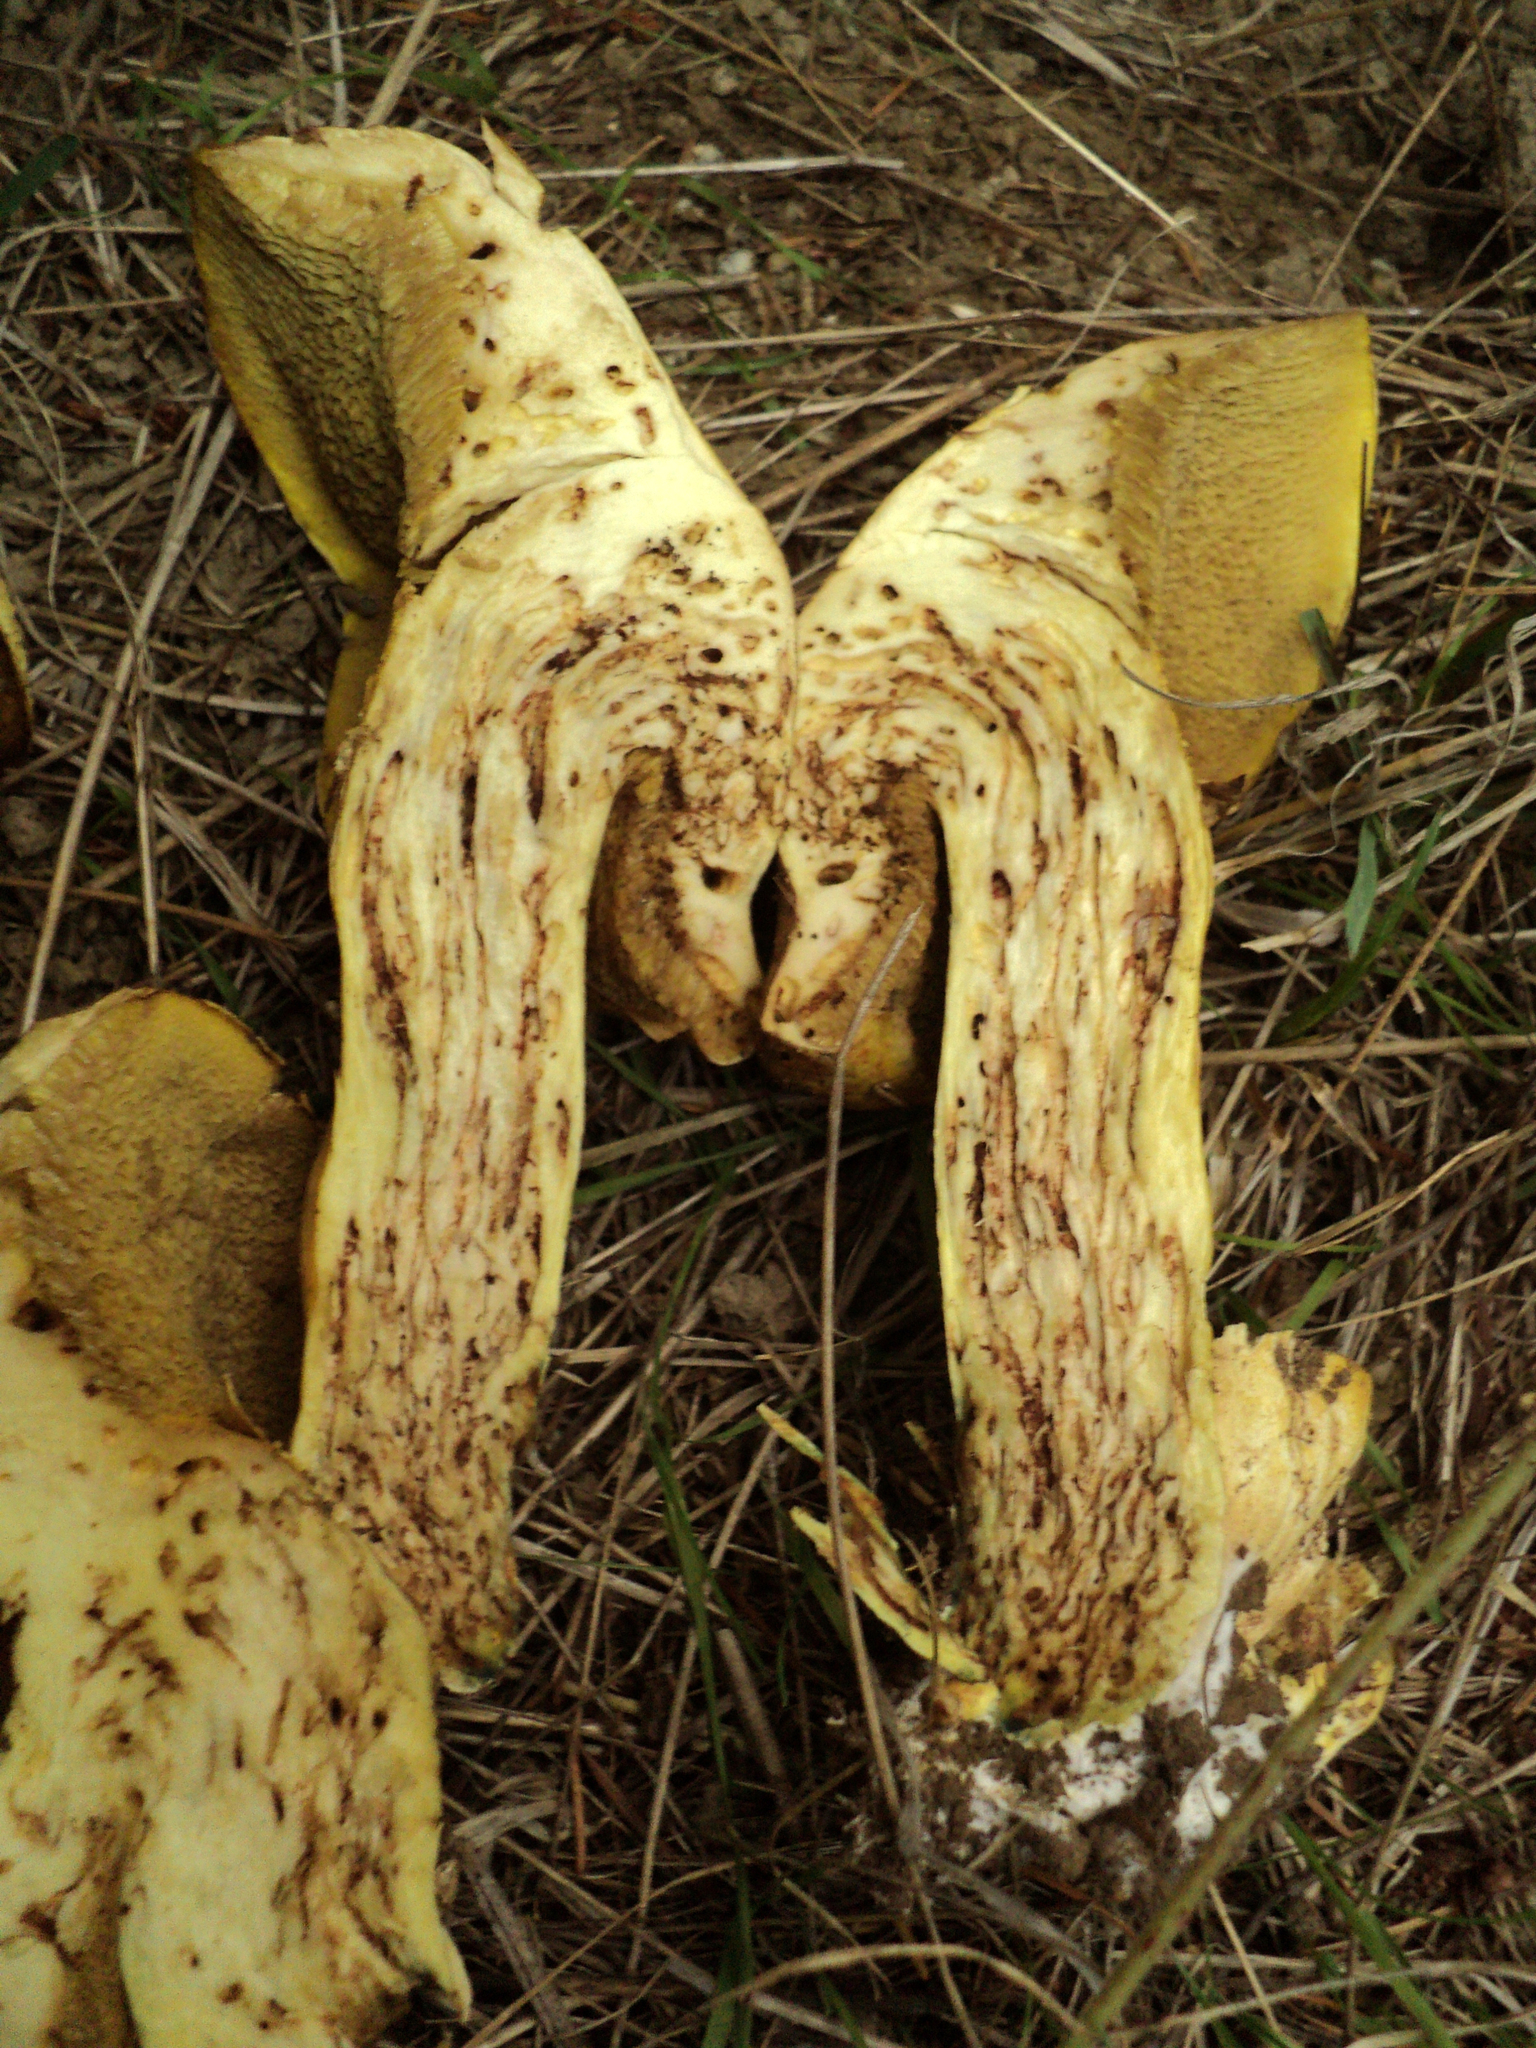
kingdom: Fungi
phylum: Basidiomycota
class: Agaricomycetes
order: Boletales
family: Suillaceae
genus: Suillus
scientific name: Suillus ponderosus
